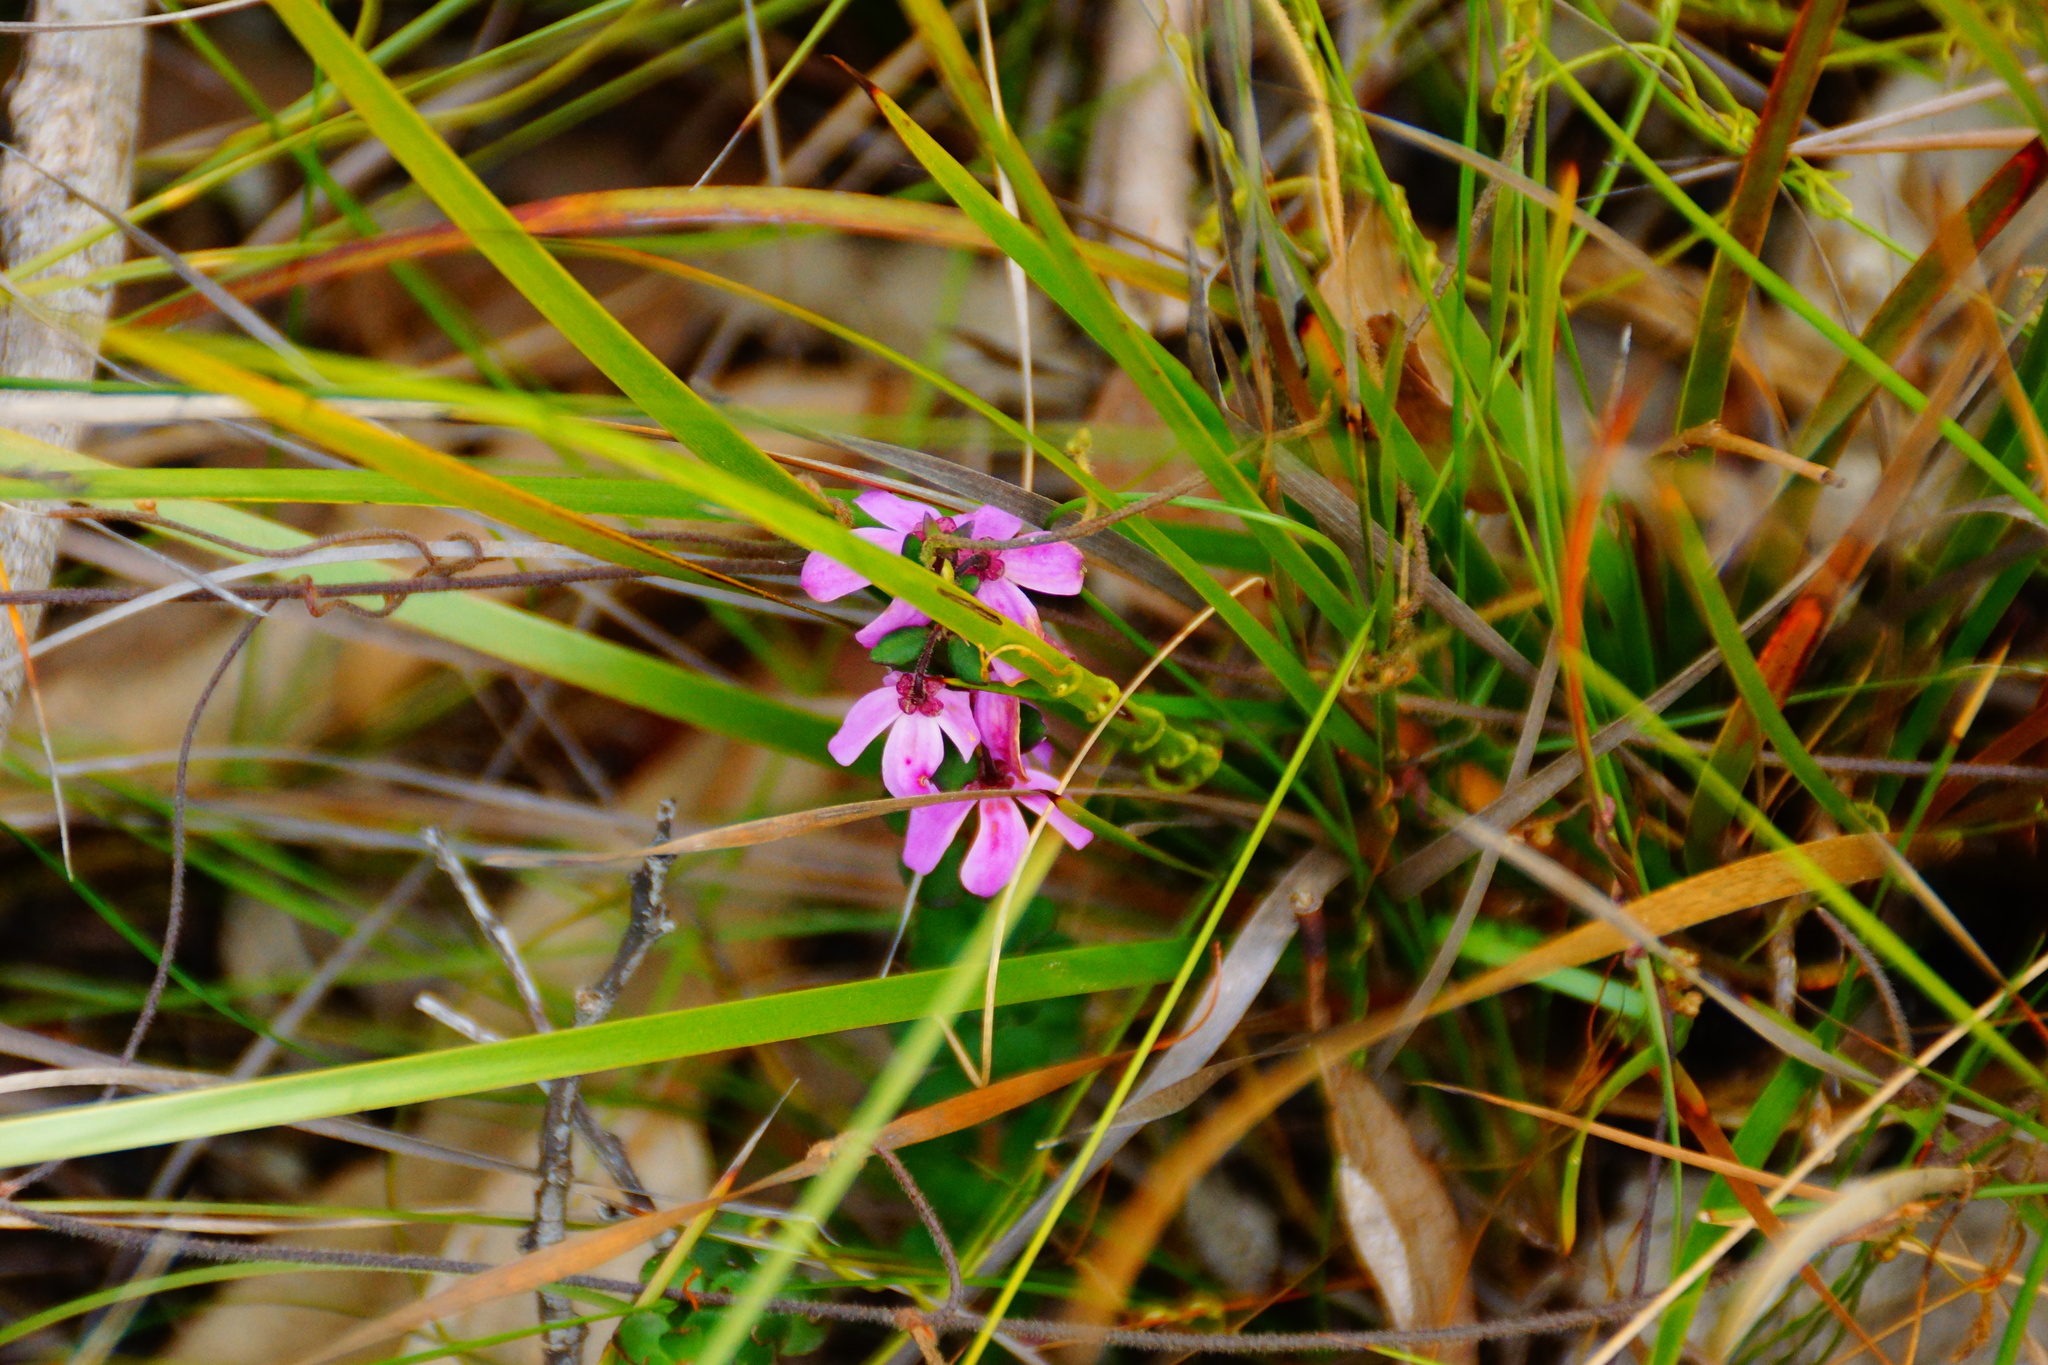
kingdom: Plantae
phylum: Tracheophyta
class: Magnoliopsida
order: Oxalidales
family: Elaeocarpaceae
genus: Tetratheca
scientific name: Tetratheca ciliata
